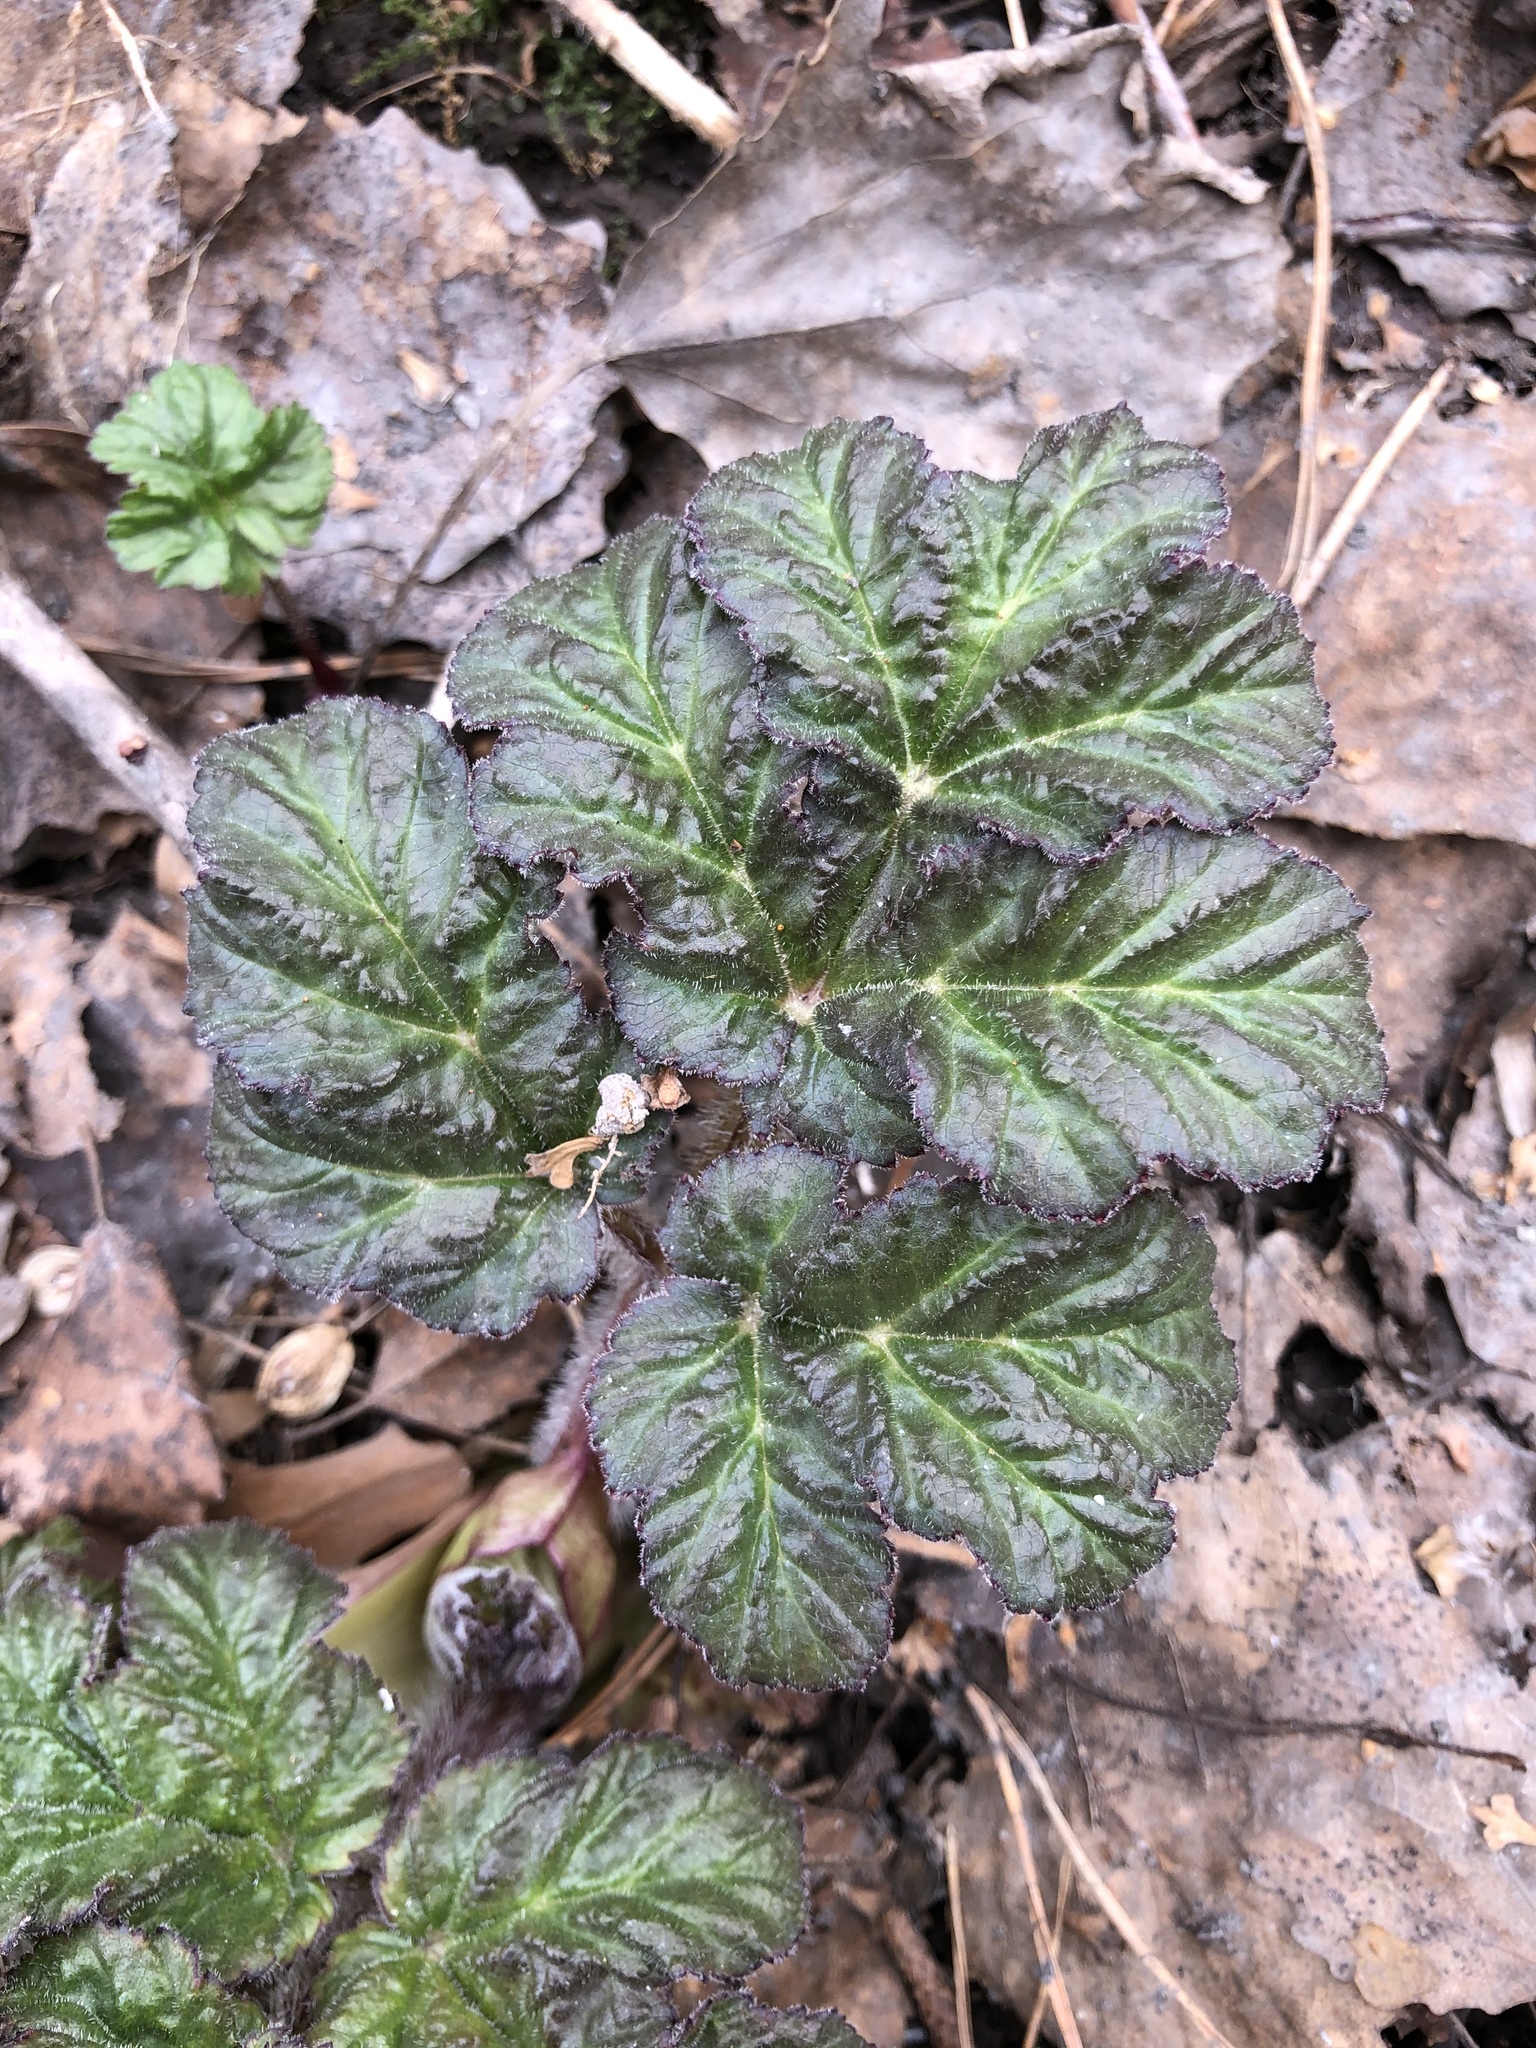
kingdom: Plantae
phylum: Tracheophyta
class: Magnoliopsida
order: Apiales
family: Apiaceae
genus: Heracleum
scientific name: Heracleum sosnowskyi
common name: Sosnowsky's hogweed
